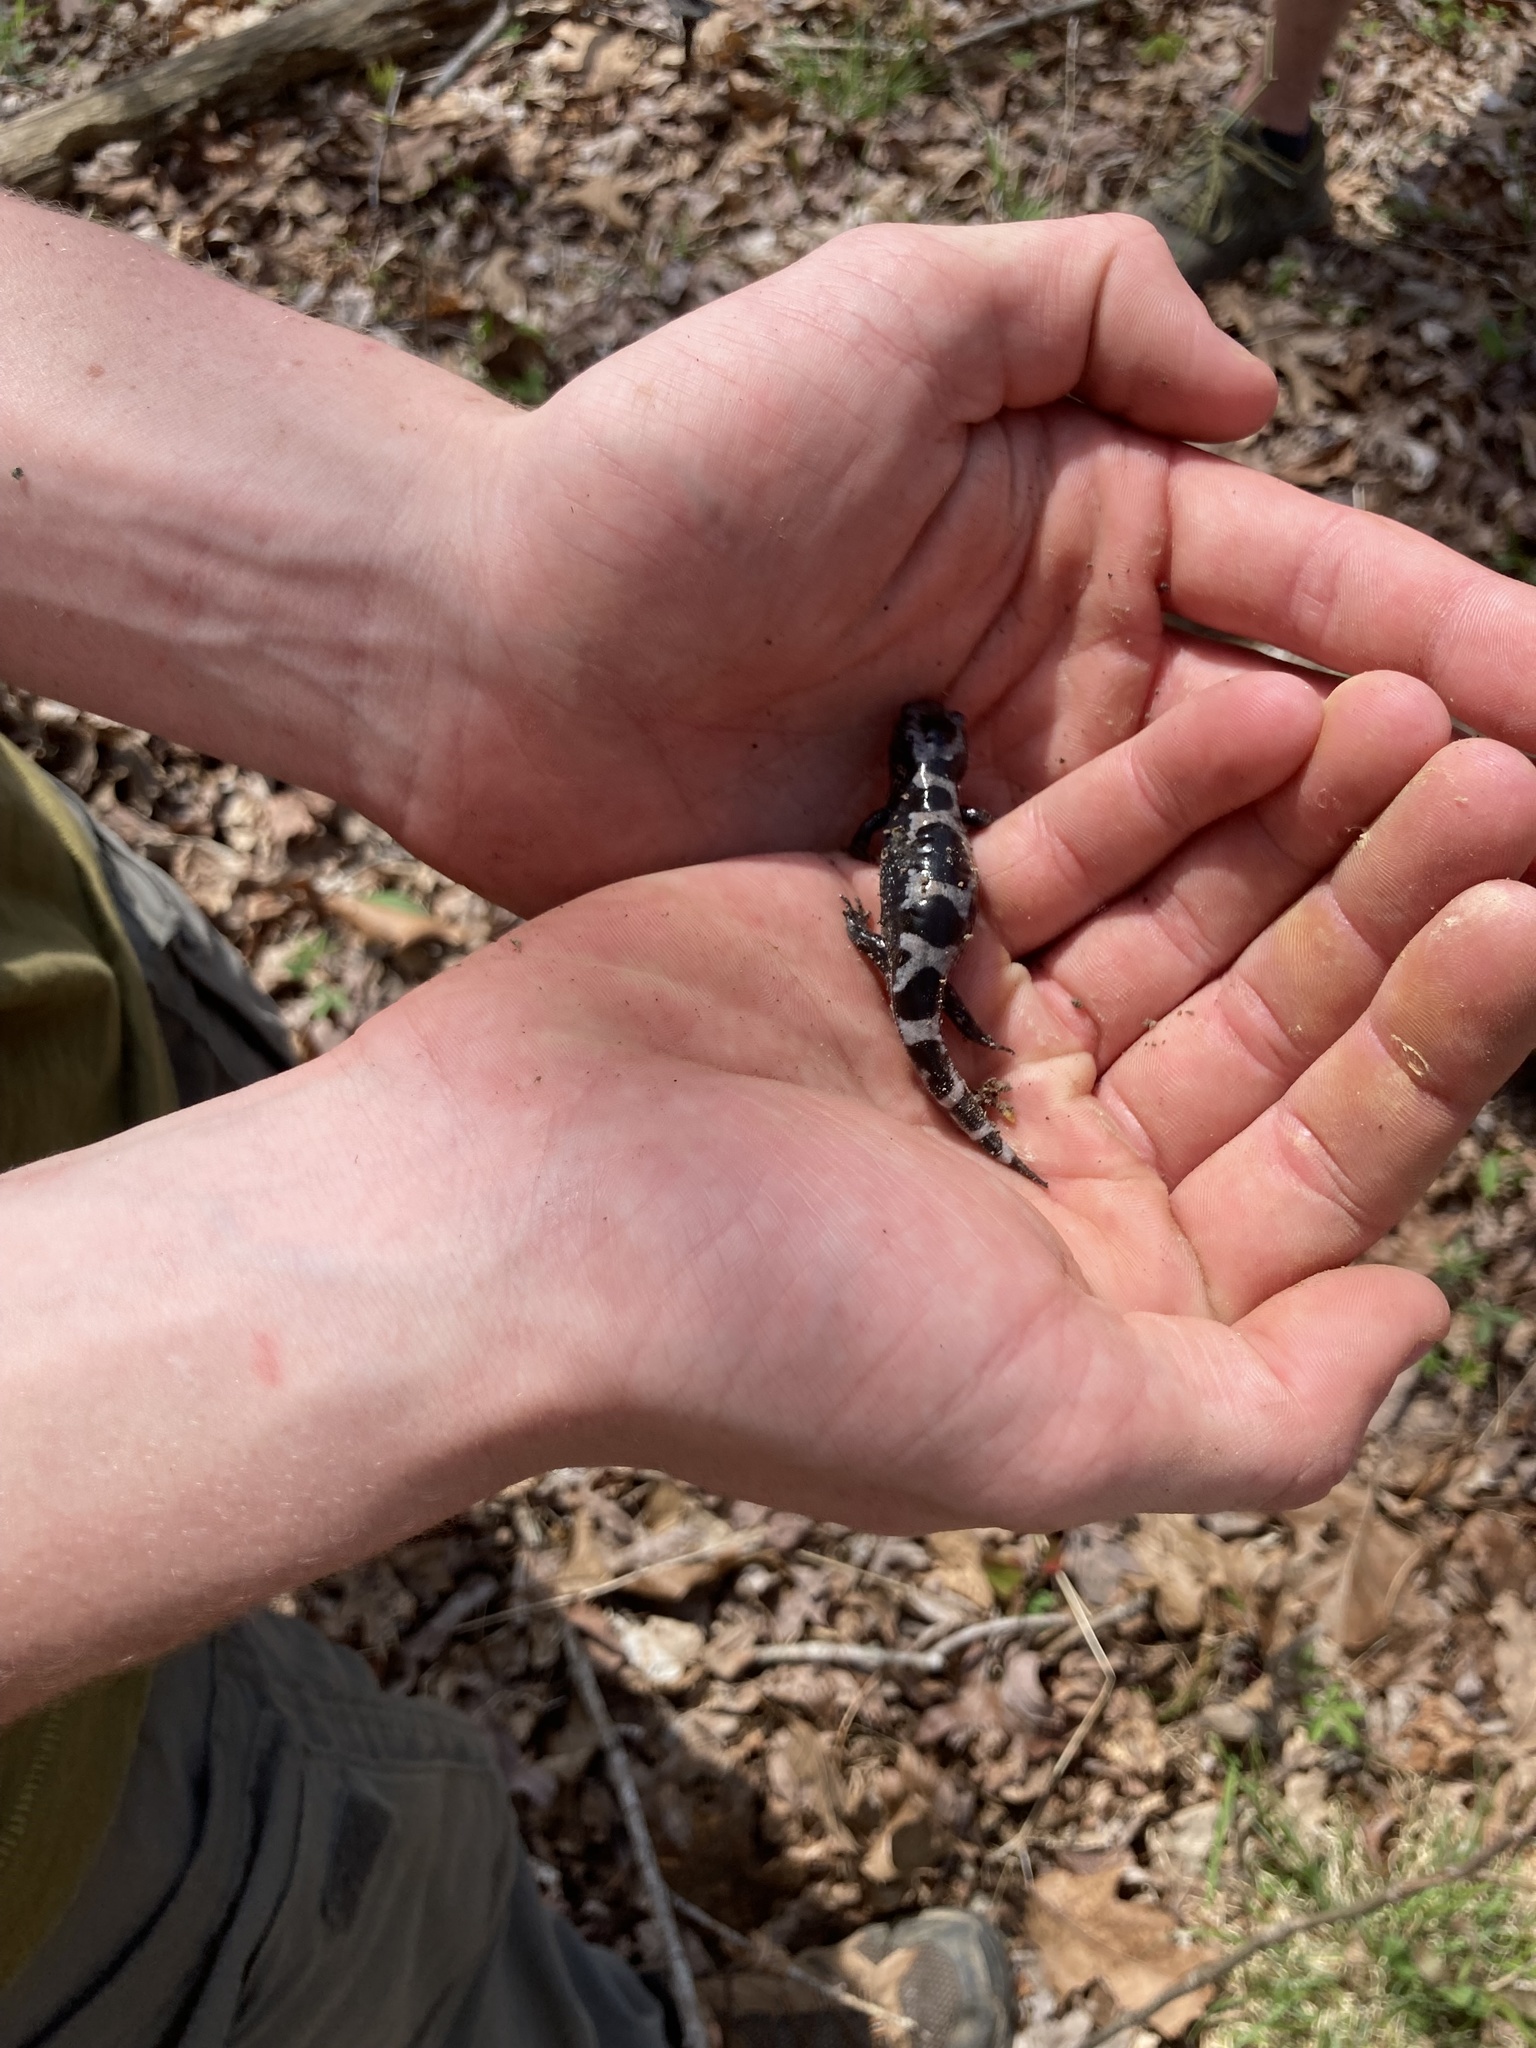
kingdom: Animalia
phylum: Chordata
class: Amphibia
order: Caudata
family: Ambystomatidae
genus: Ambystoma
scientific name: Ambystoma opacum
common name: Marbled salamander
